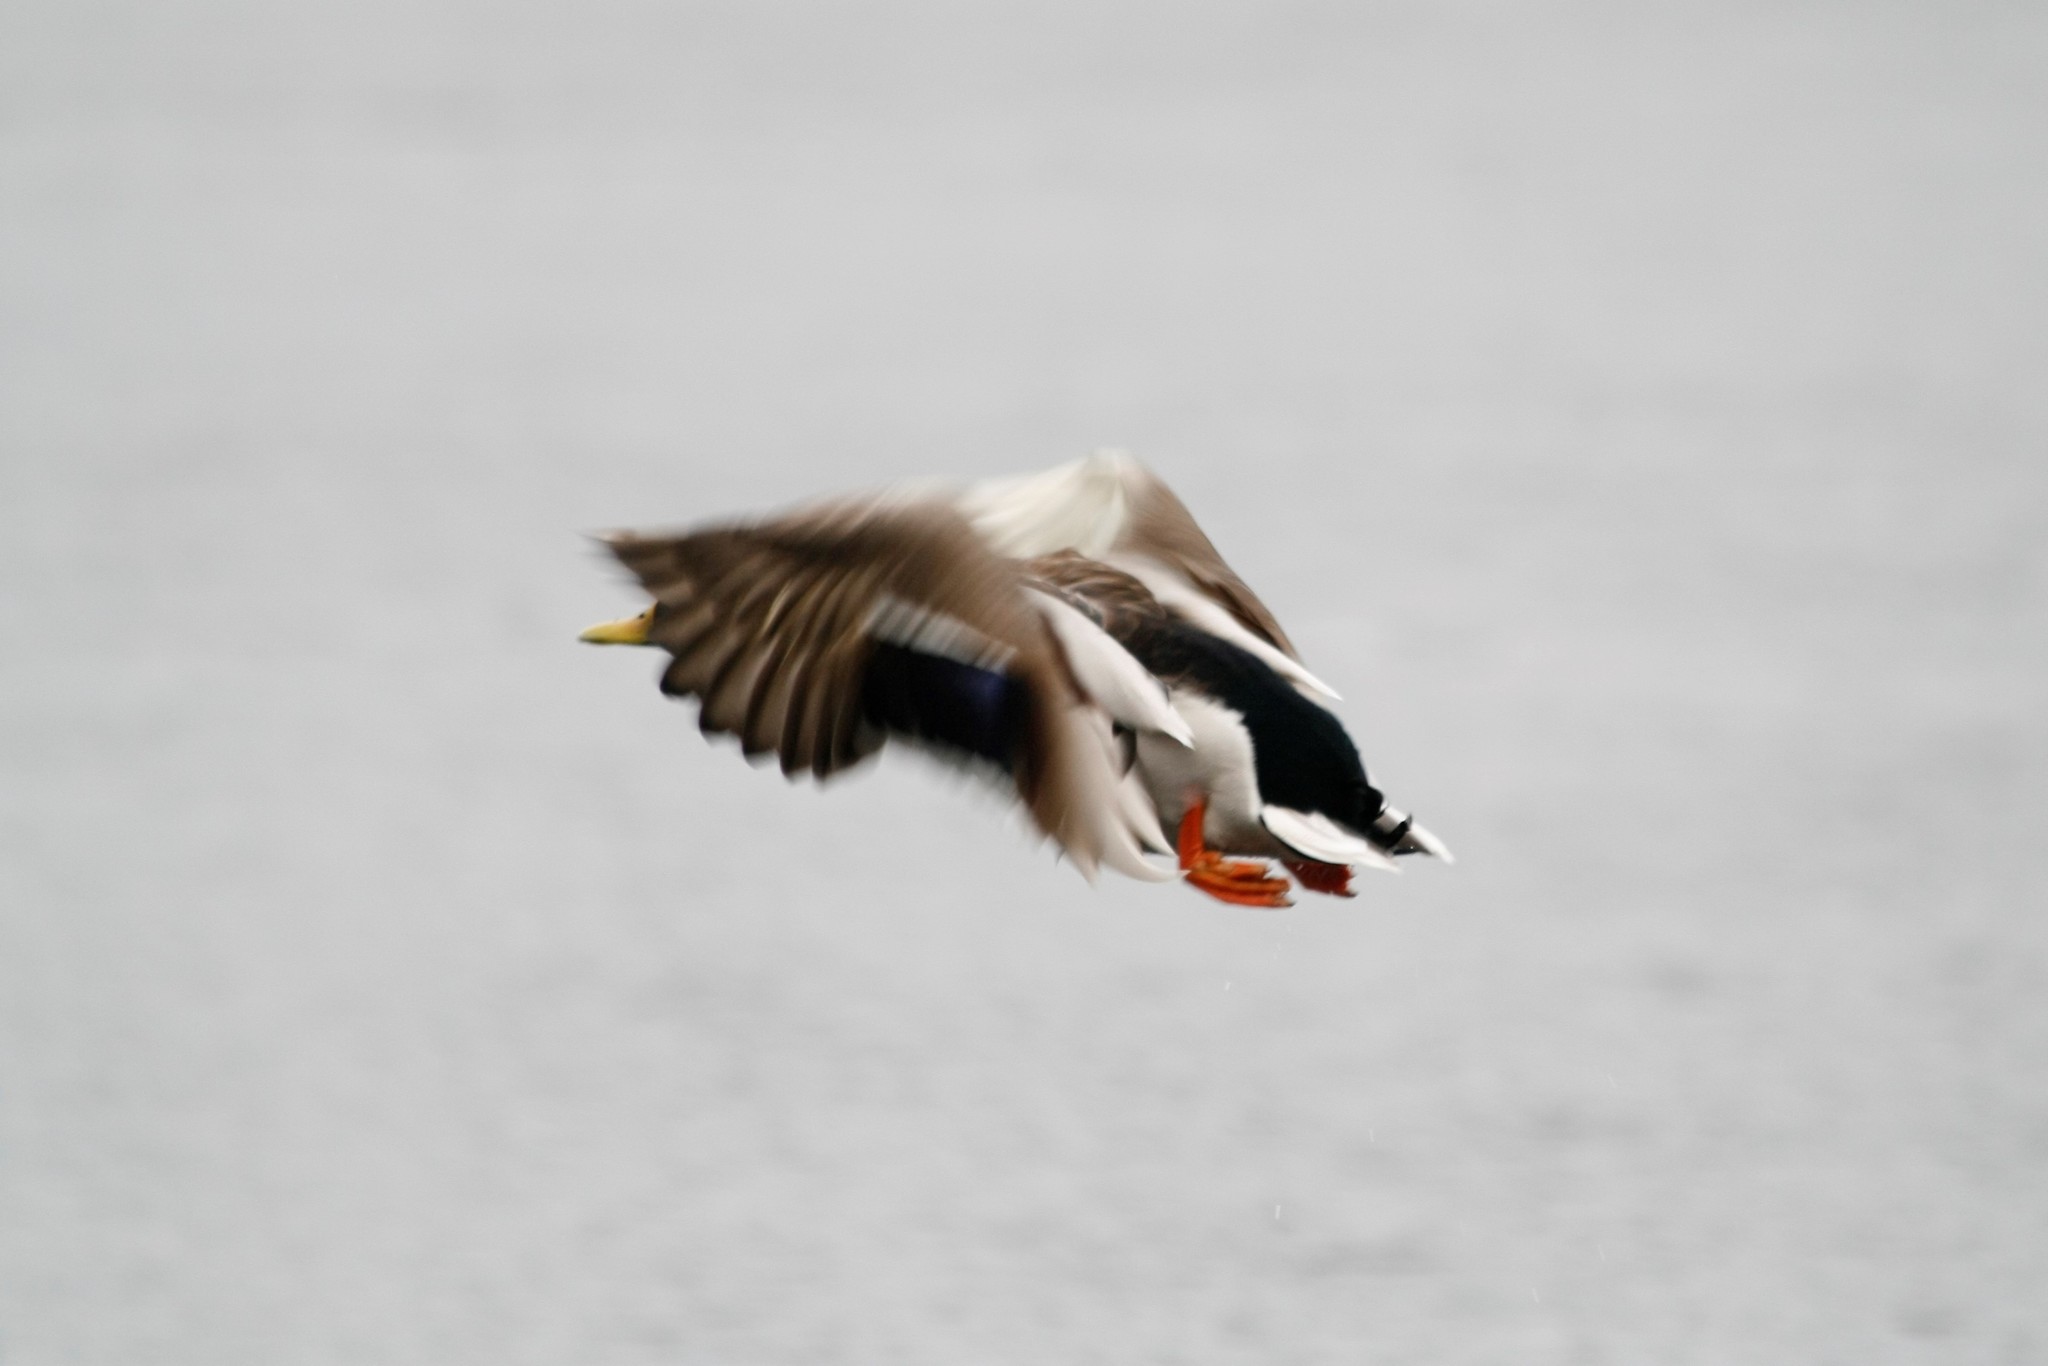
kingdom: Animalia
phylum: Chordata
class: Aves
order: Anseriformes
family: Anatidae
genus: Anas
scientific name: Anas platyrhynchos
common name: Mallard
